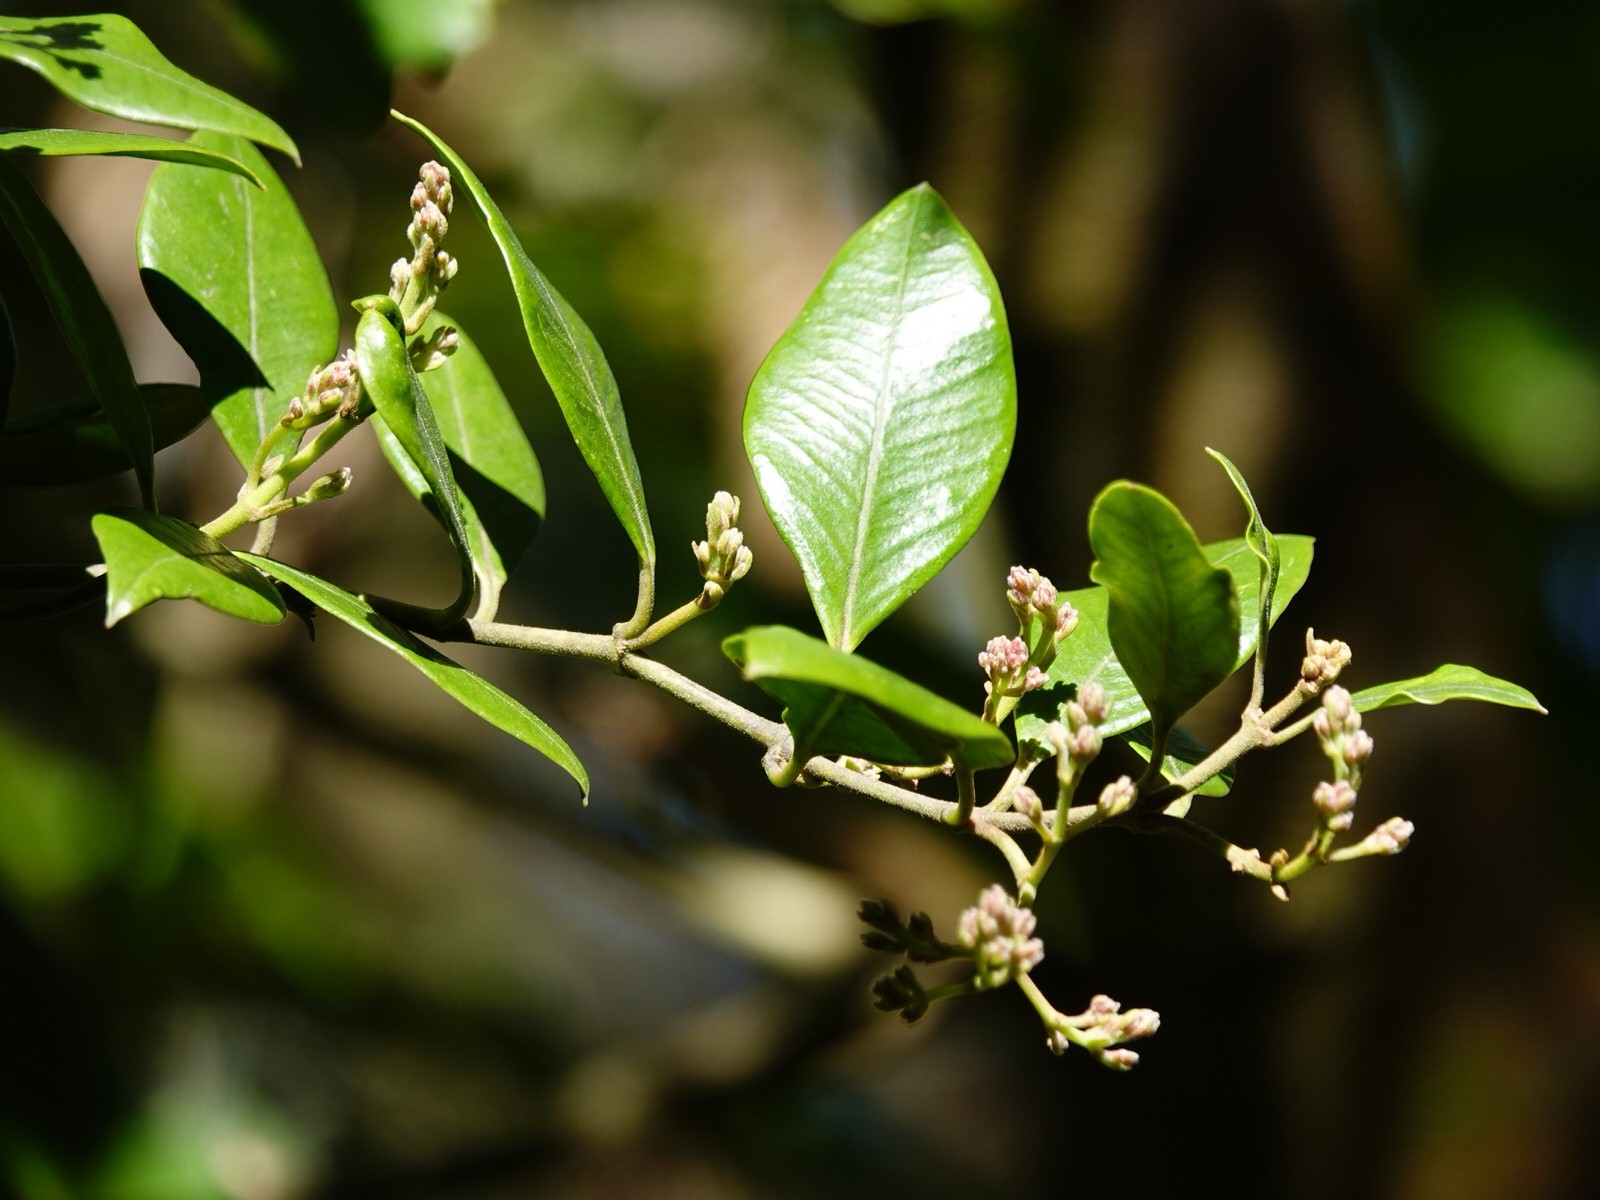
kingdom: Plantae
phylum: Tracheophyta
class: Magnoliopsida
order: Gentianales
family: Apocynaceae
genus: Parsonsia
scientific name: Parsonsia heterophylla
